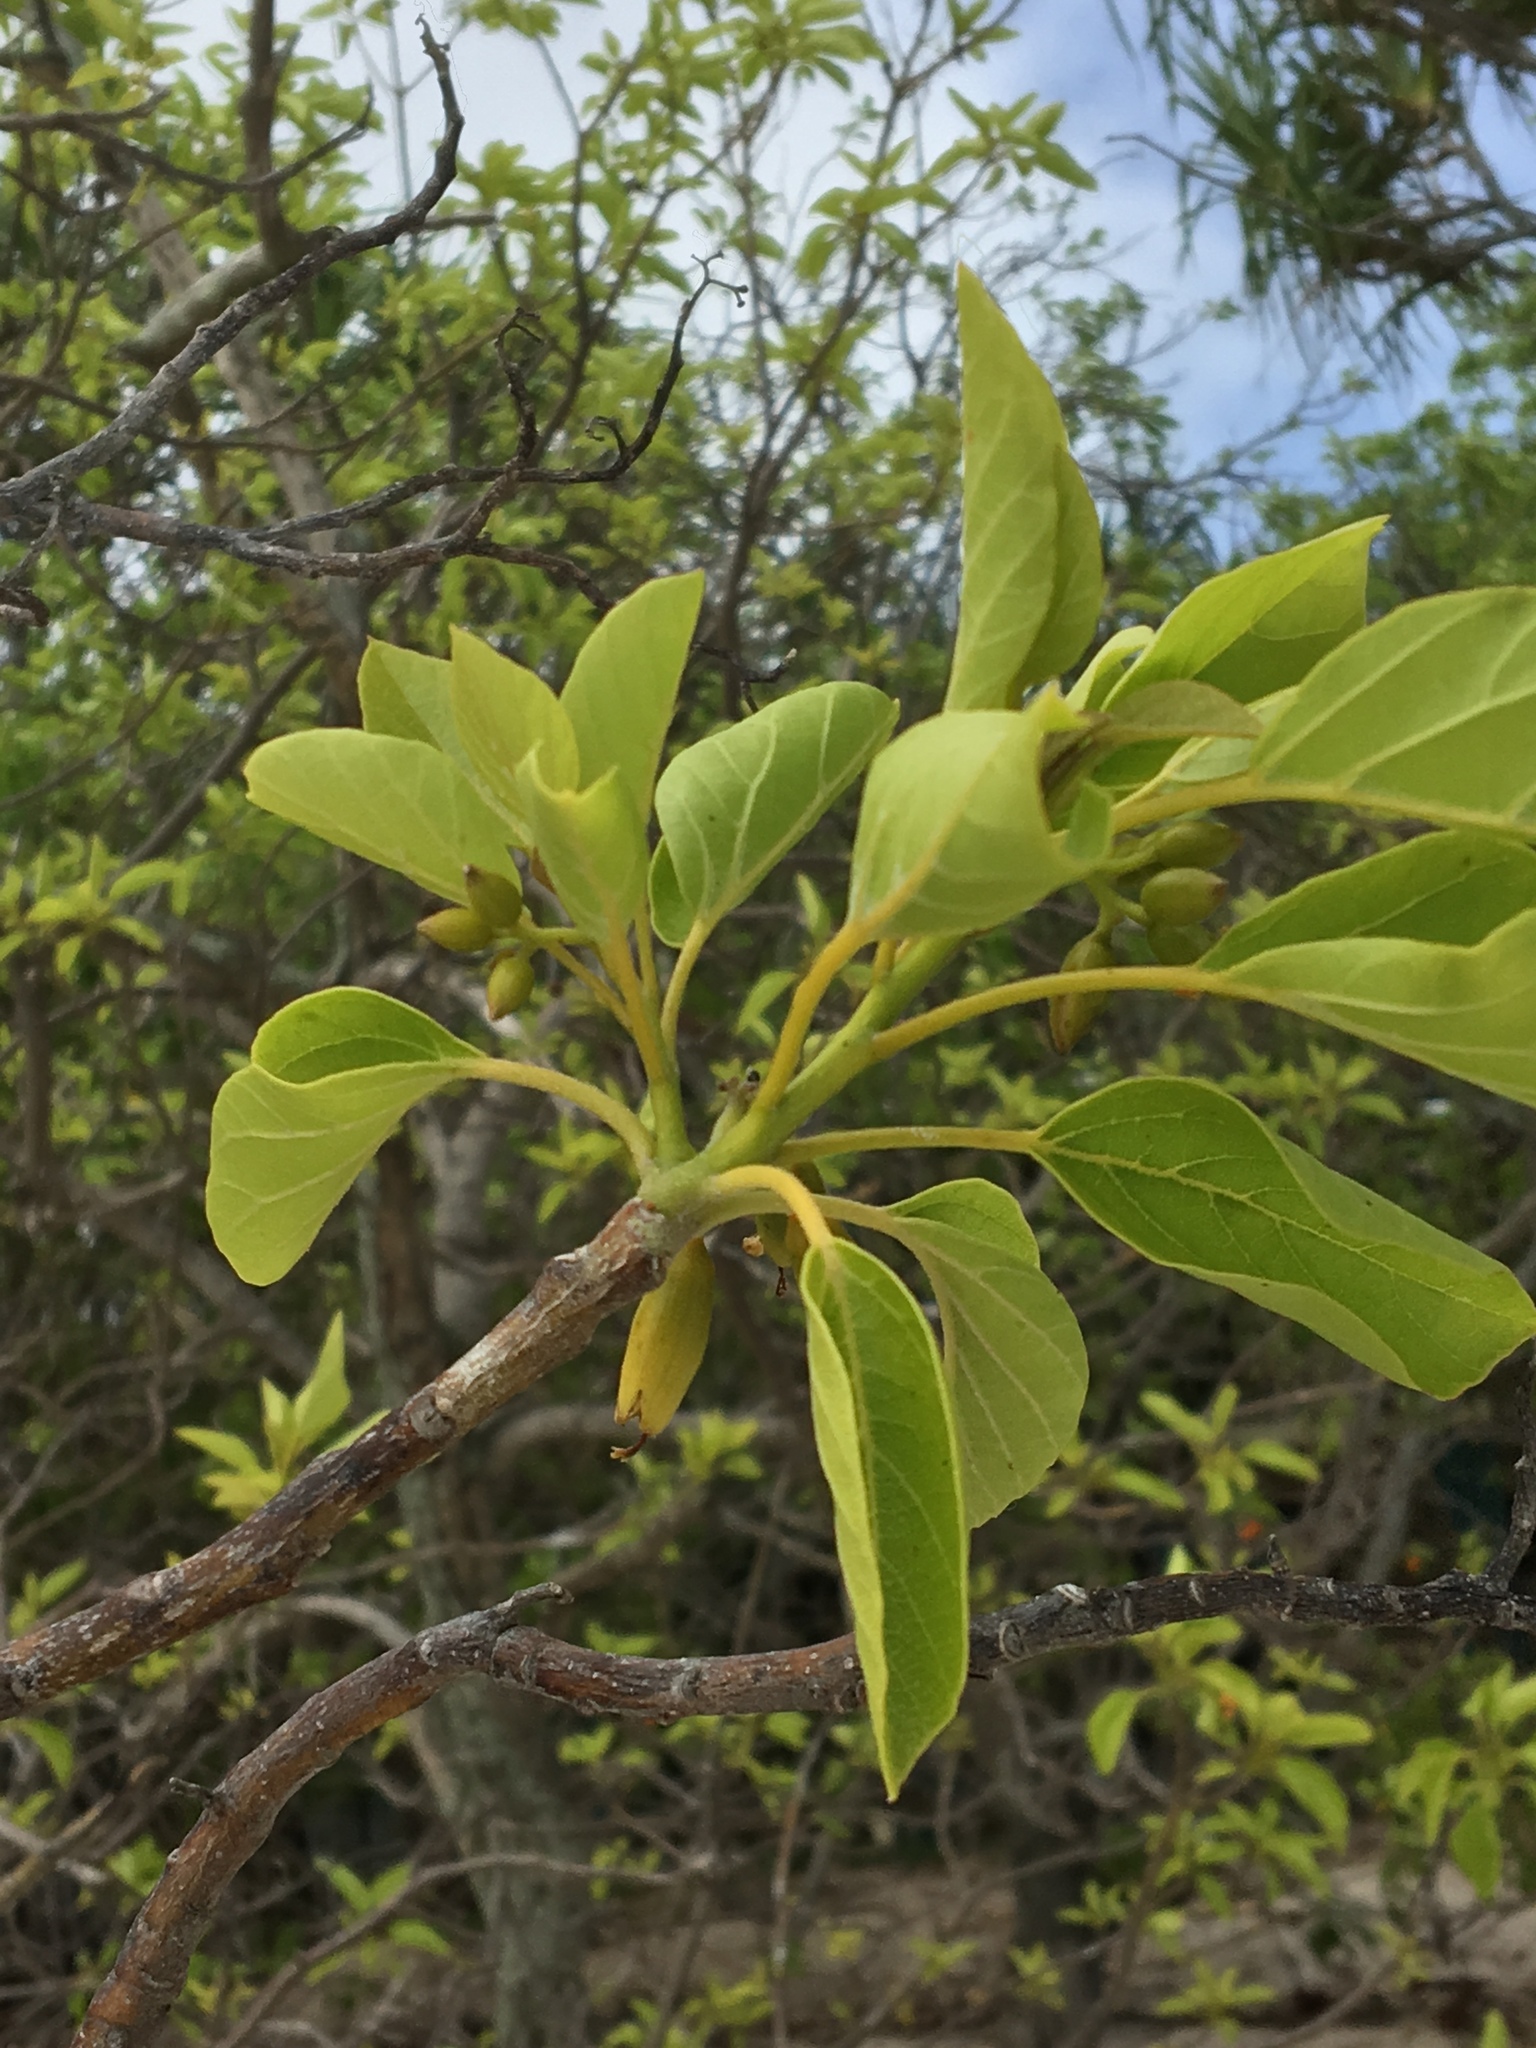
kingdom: Plantae
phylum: Tracheophyta
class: Magnoliopsida
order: Boraginales
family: Cordiaceae
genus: Cordia
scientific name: Cordia subcordata
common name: Mareer
